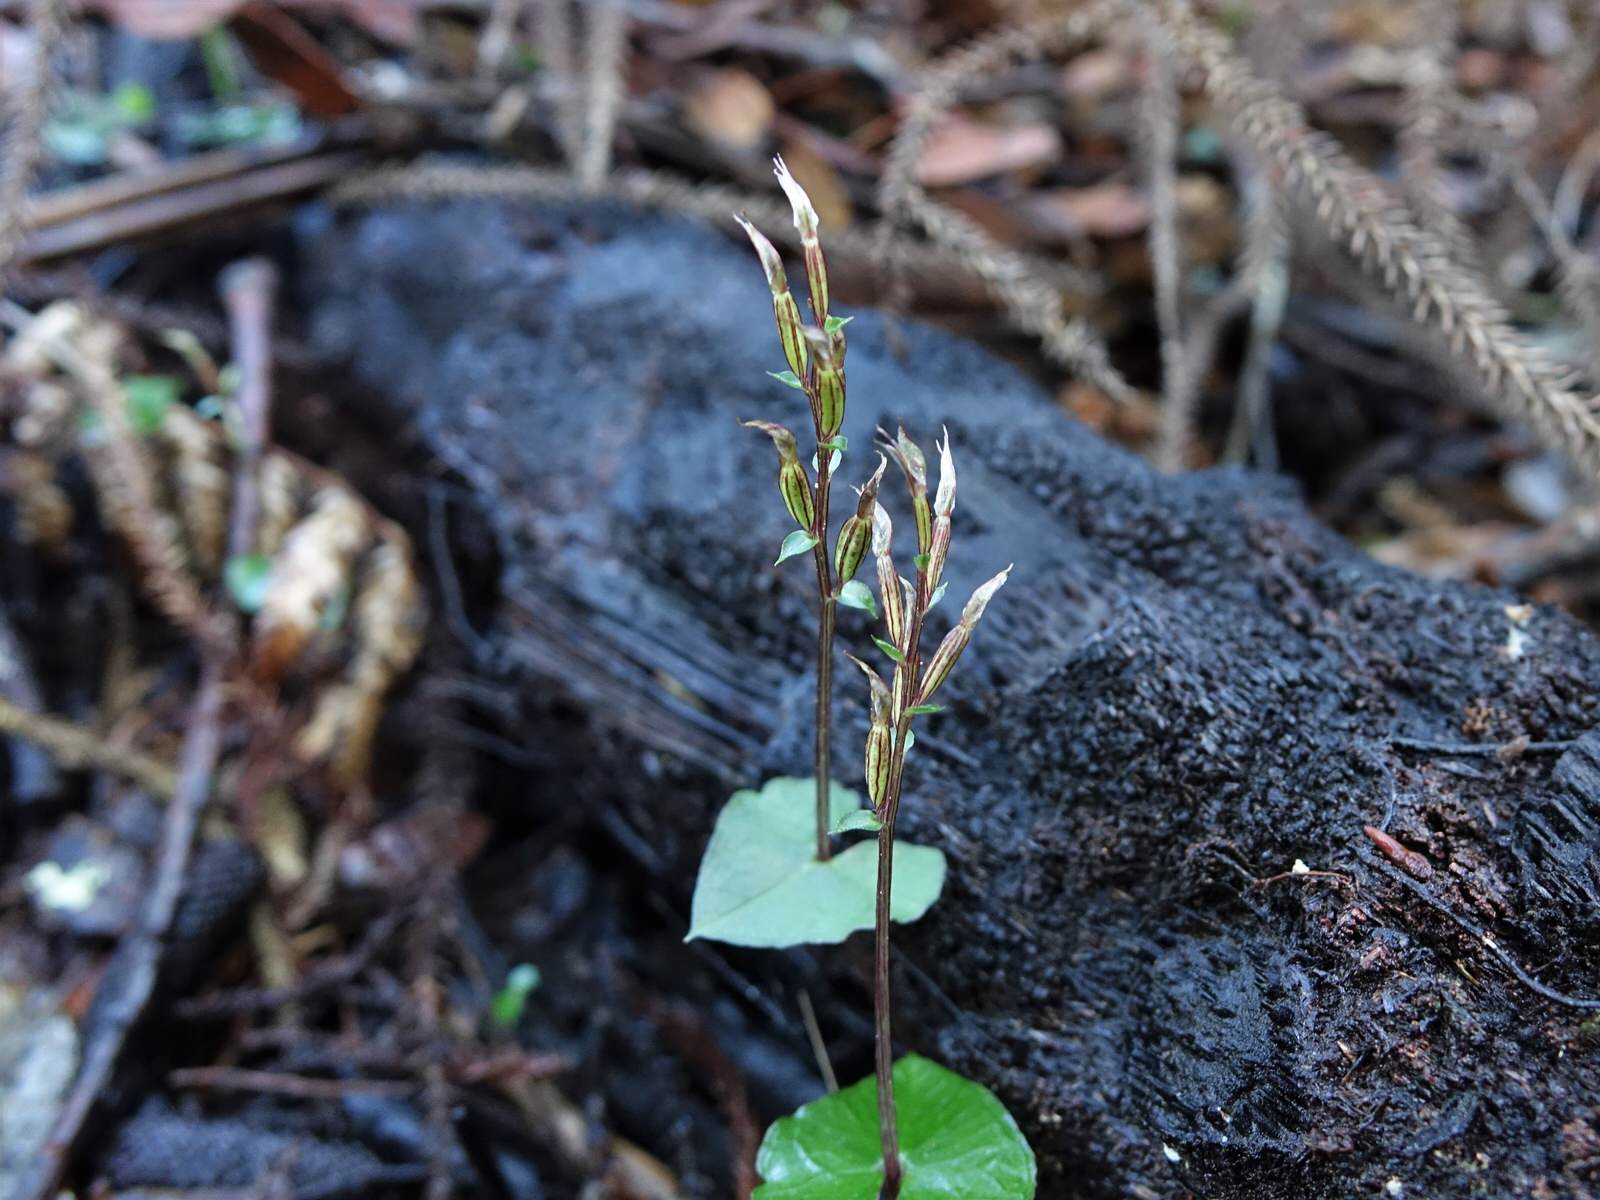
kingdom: Plantae
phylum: Tracheophyta
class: Liliopsida
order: Asparagales
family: Orchidaceae
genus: Acianthus
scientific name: Acianthus sinclairii
